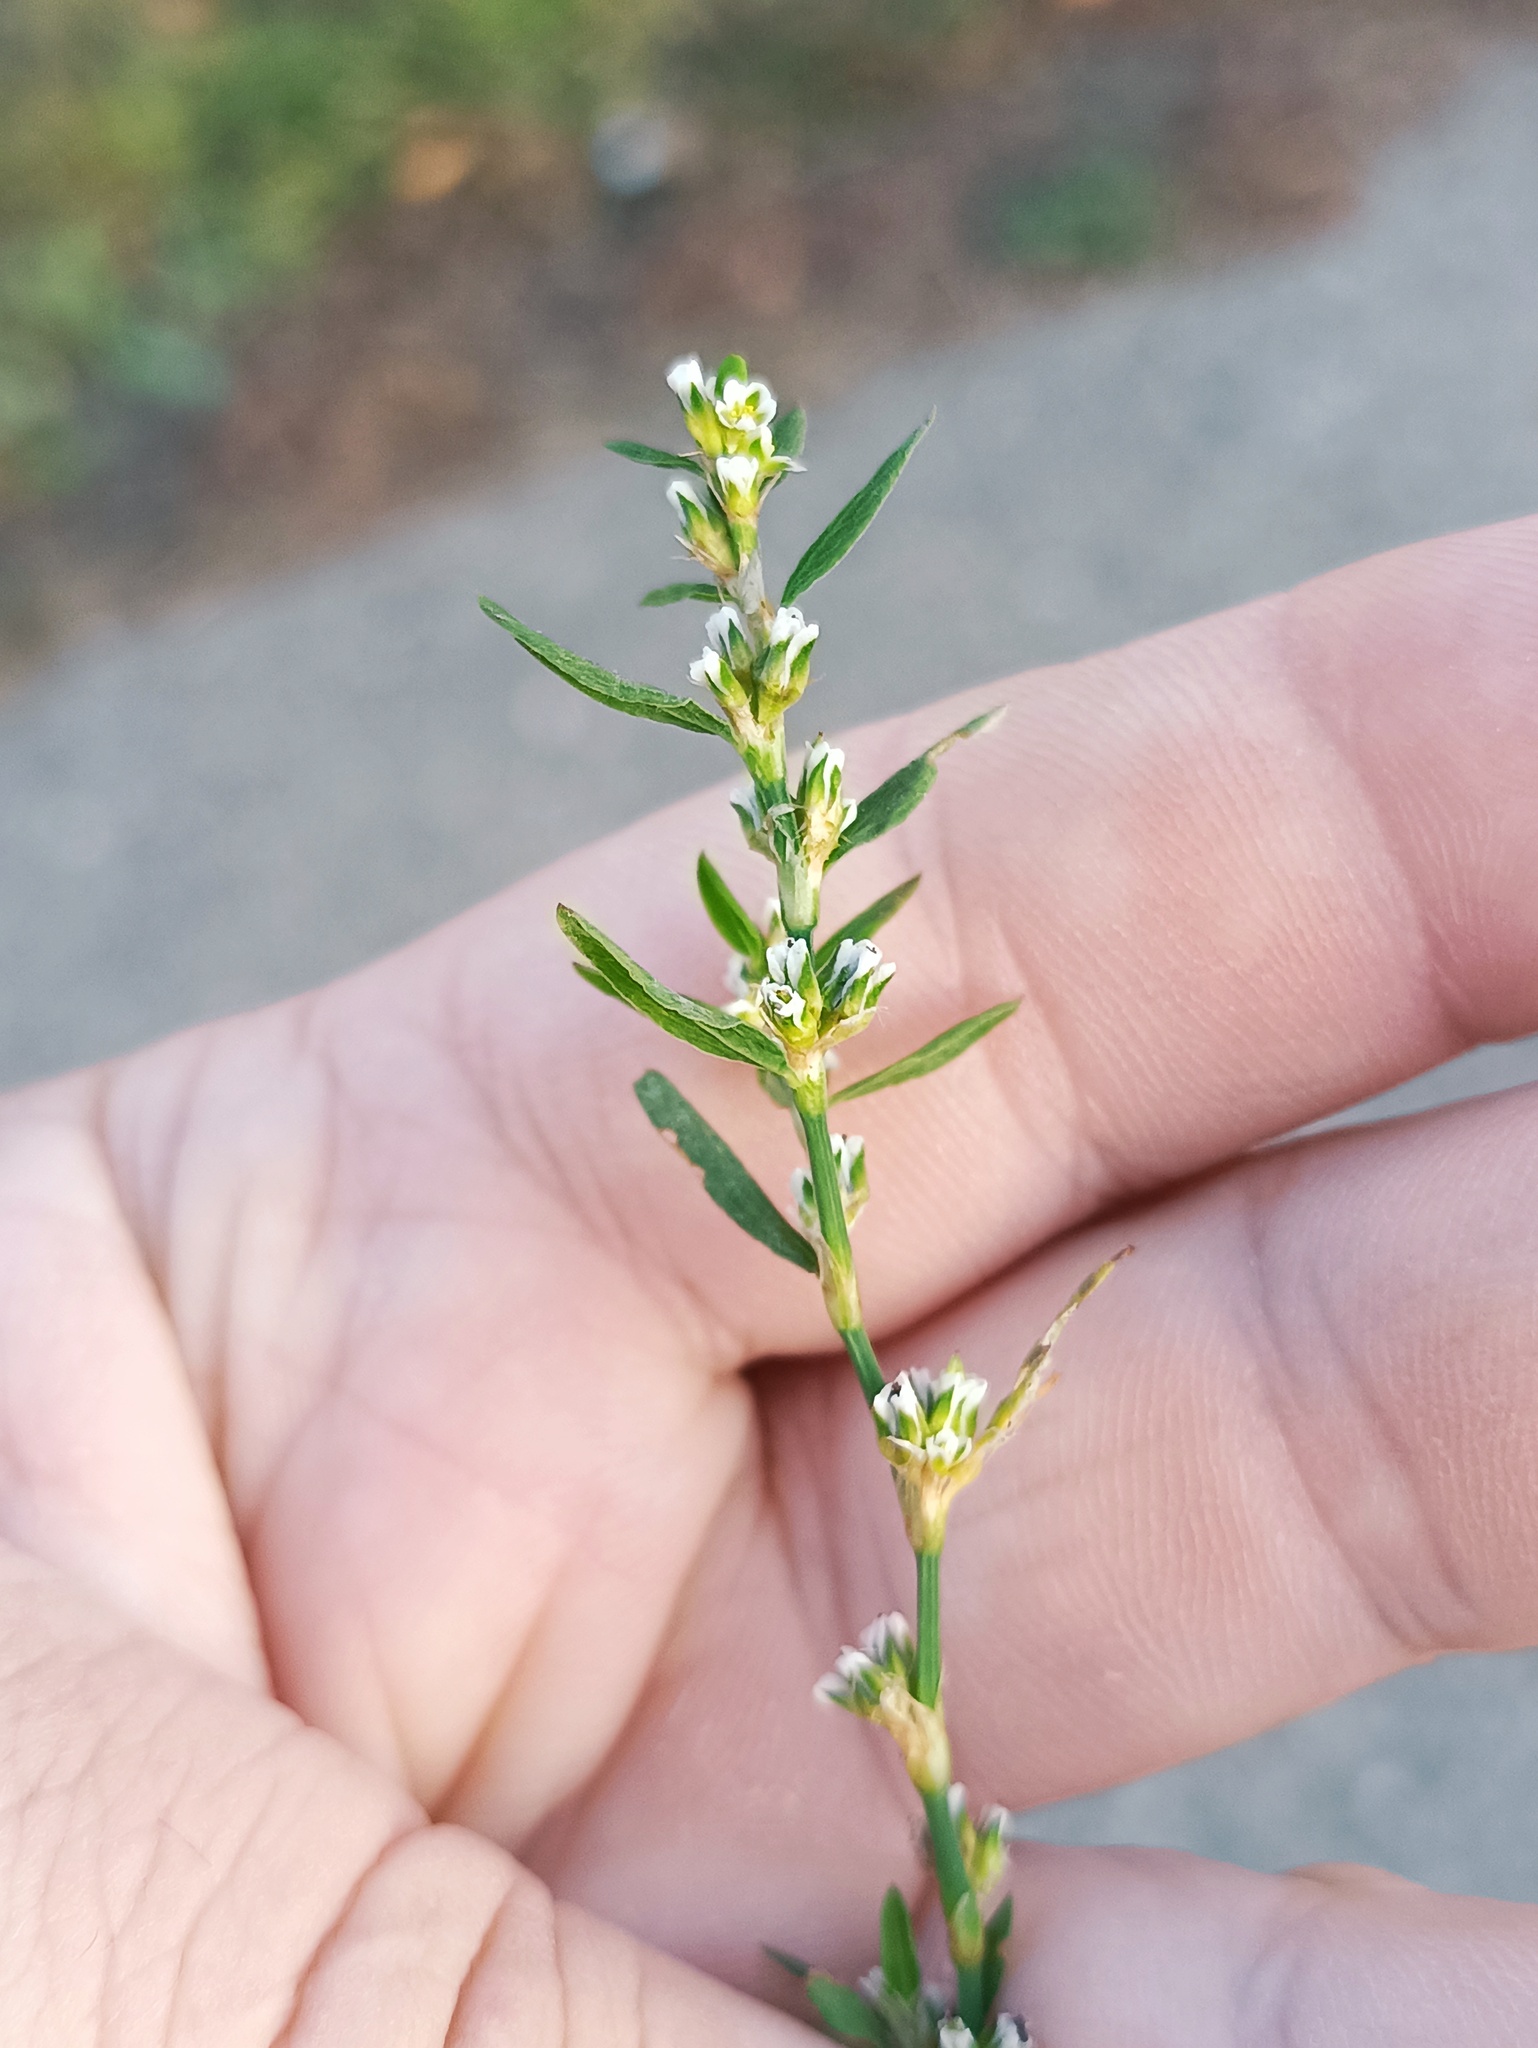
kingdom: Plantae
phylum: Tracheophyta
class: Magnoliopsida
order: Caryophyllales
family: Polygonaceae
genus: Polygonum
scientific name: Polygonum
